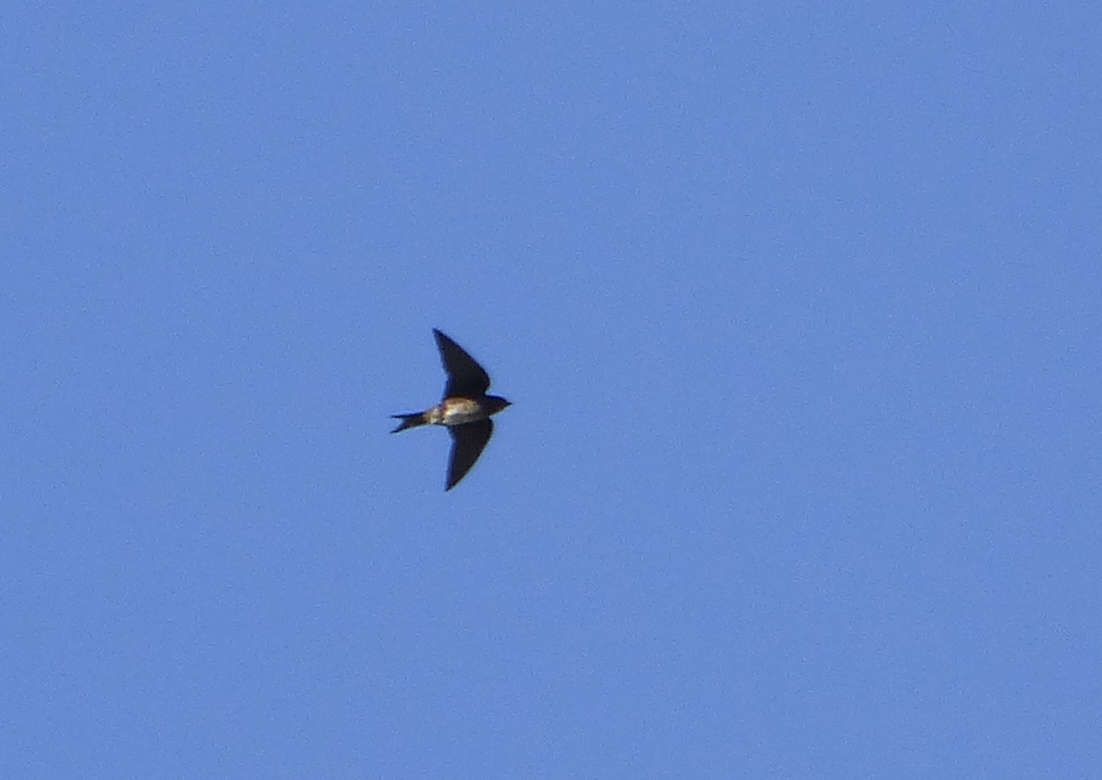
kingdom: Animalia
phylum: Chordata
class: Aves
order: Passeriformes
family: Hirundinidae
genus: Progne
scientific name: Progne chalybea
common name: Grey-breasted martin
